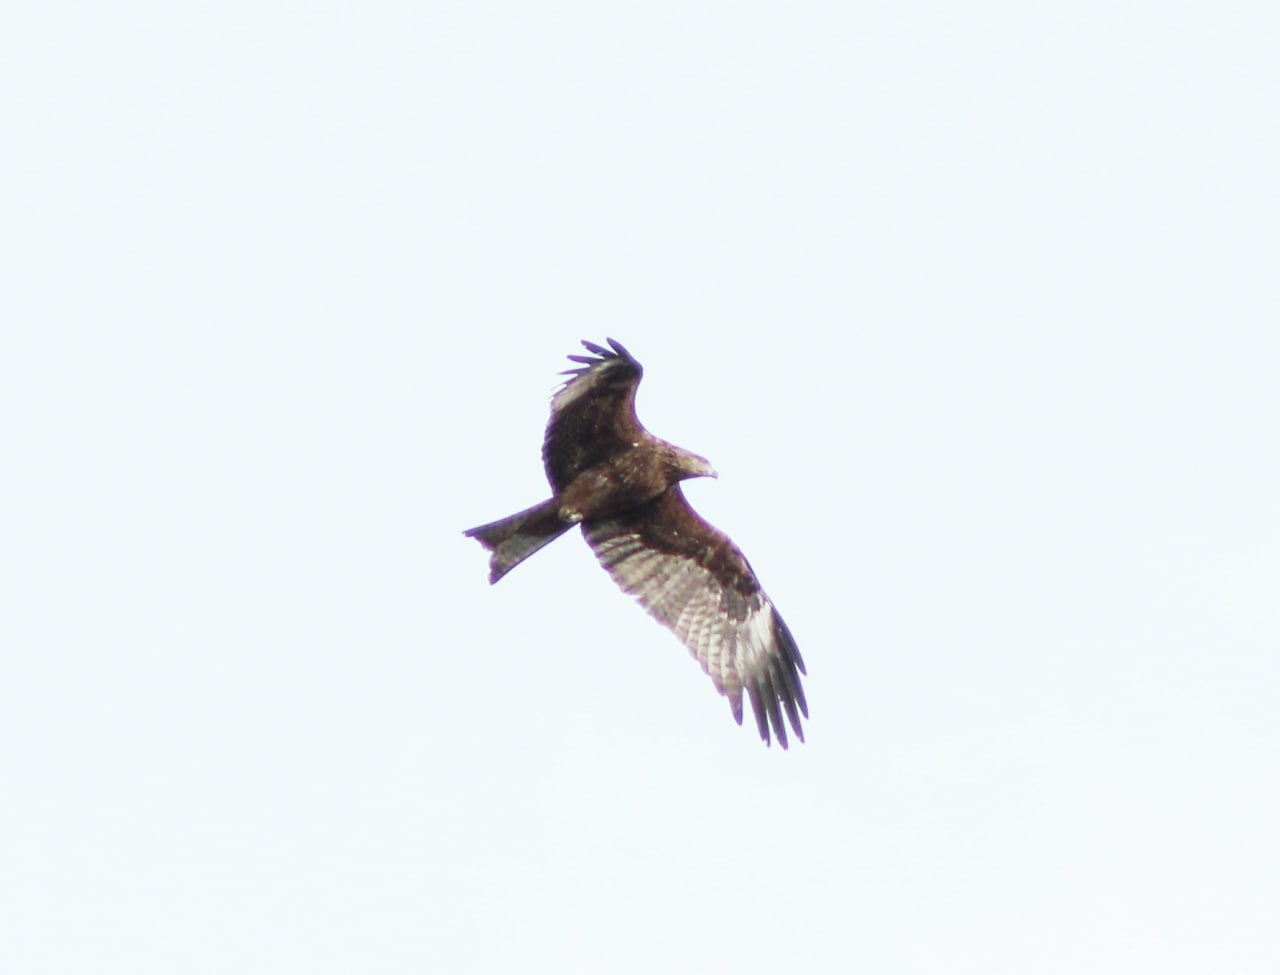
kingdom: Animalia
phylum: Chordata
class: Aves
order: Accipitriformes
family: Accipitridae
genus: Milvus
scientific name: Milvus migrans
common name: Black kite
